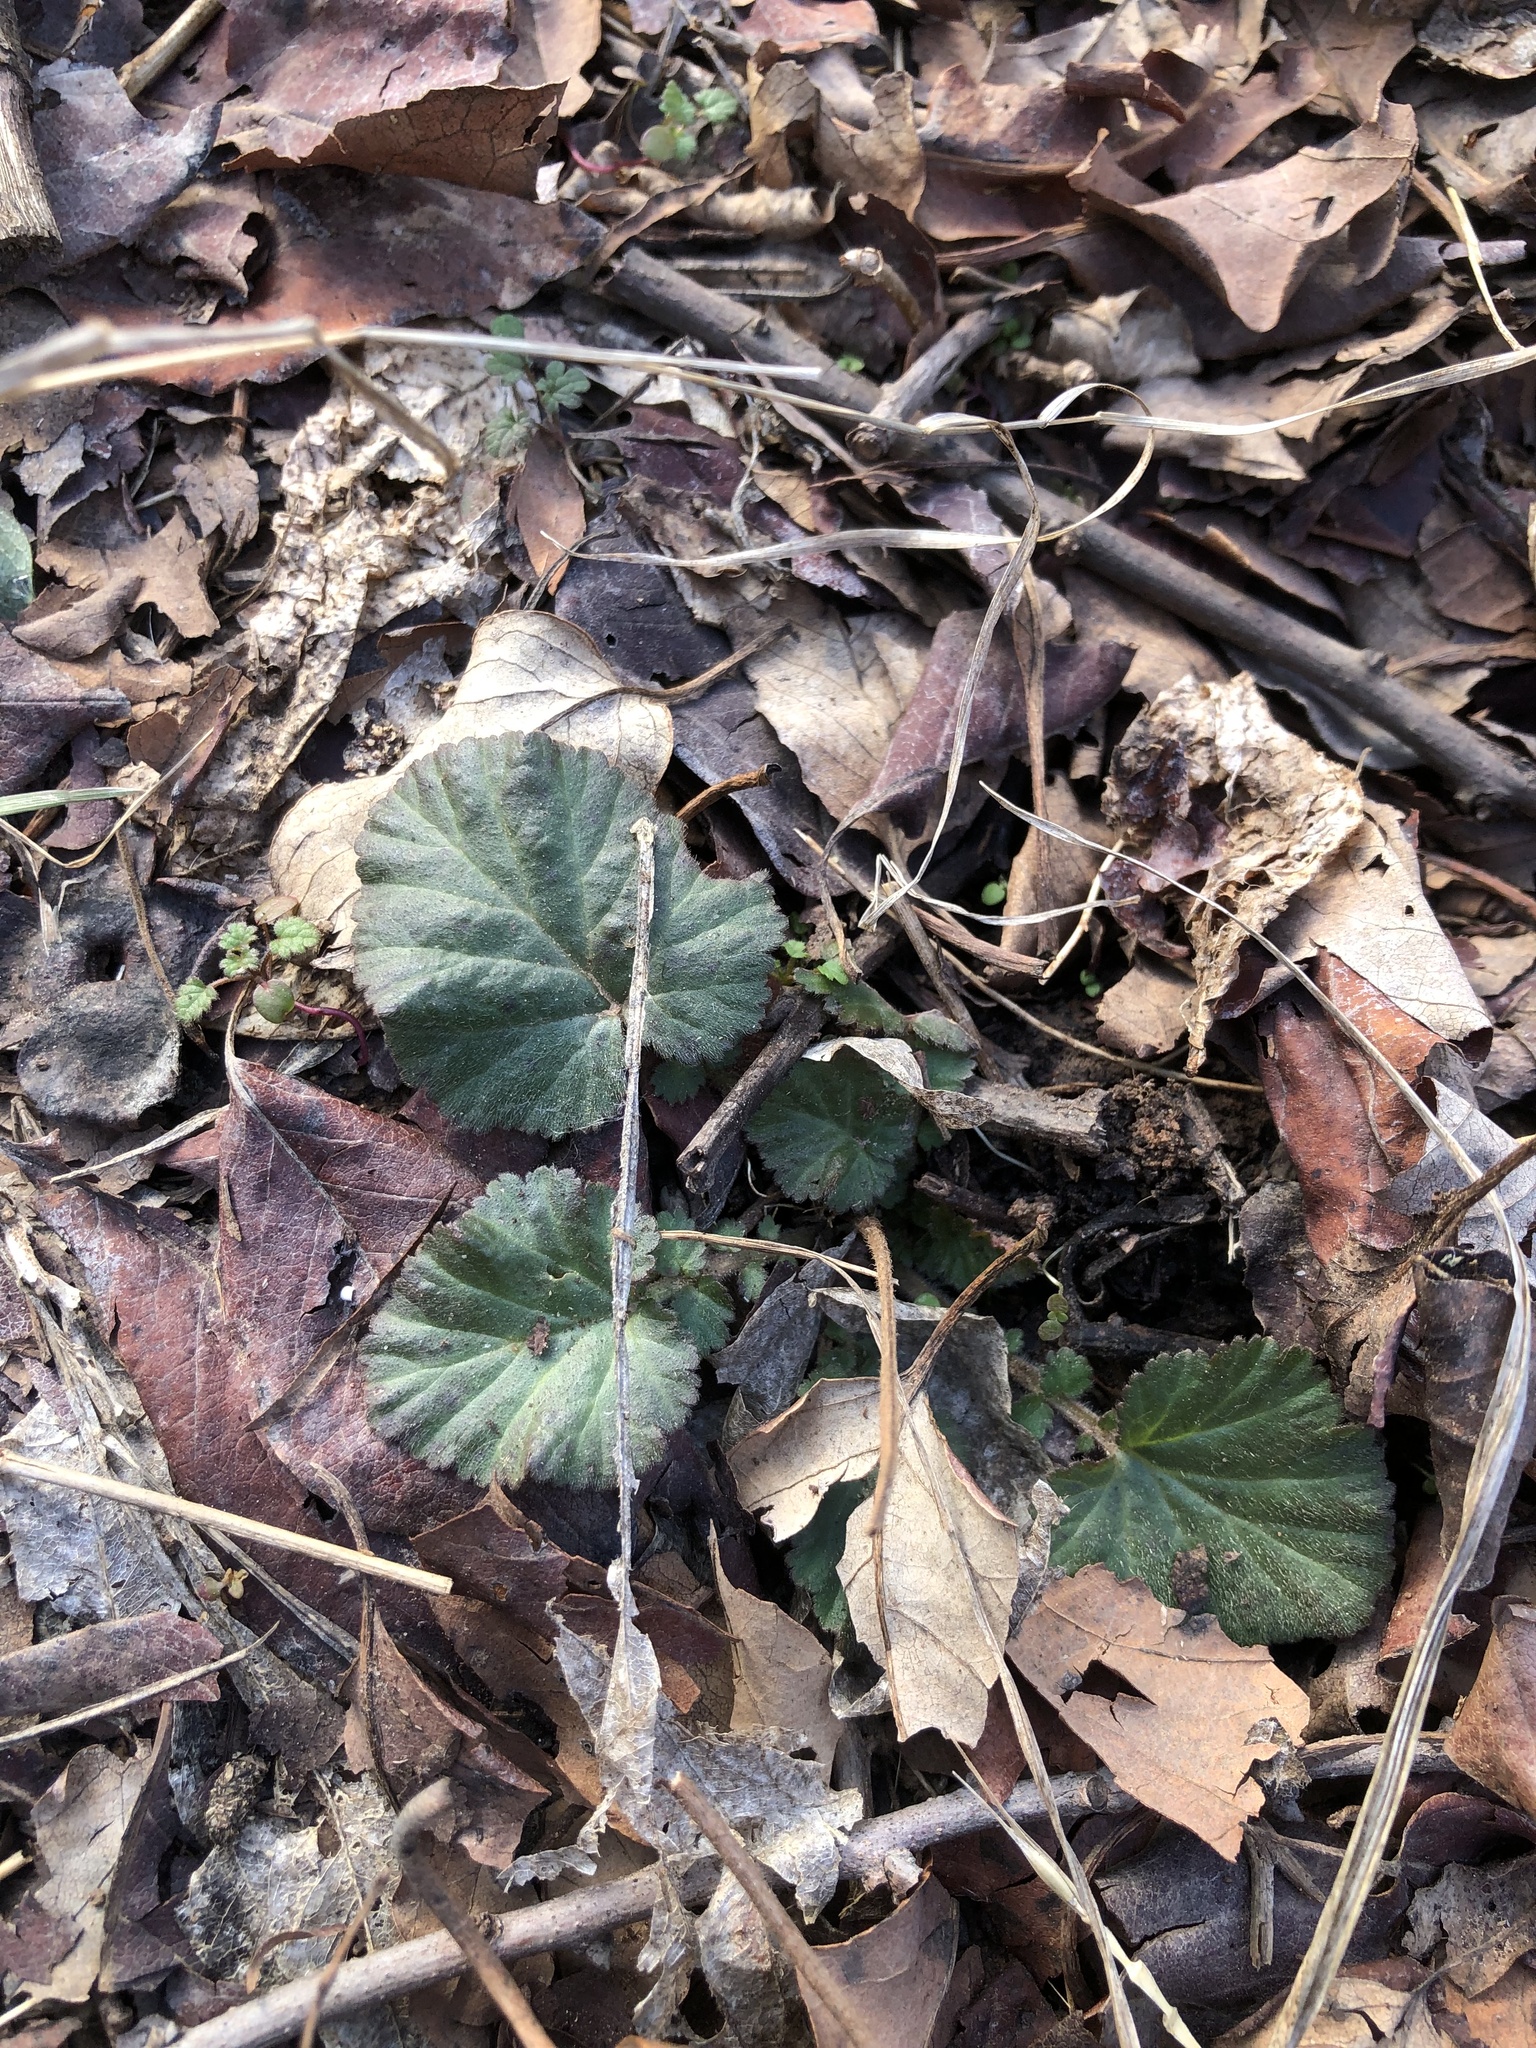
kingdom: Plantae
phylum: Tracheophyta
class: Magnoliopsida
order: Rosales
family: Rosaceae
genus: Geum
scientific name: Geum canadense
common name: White avens
